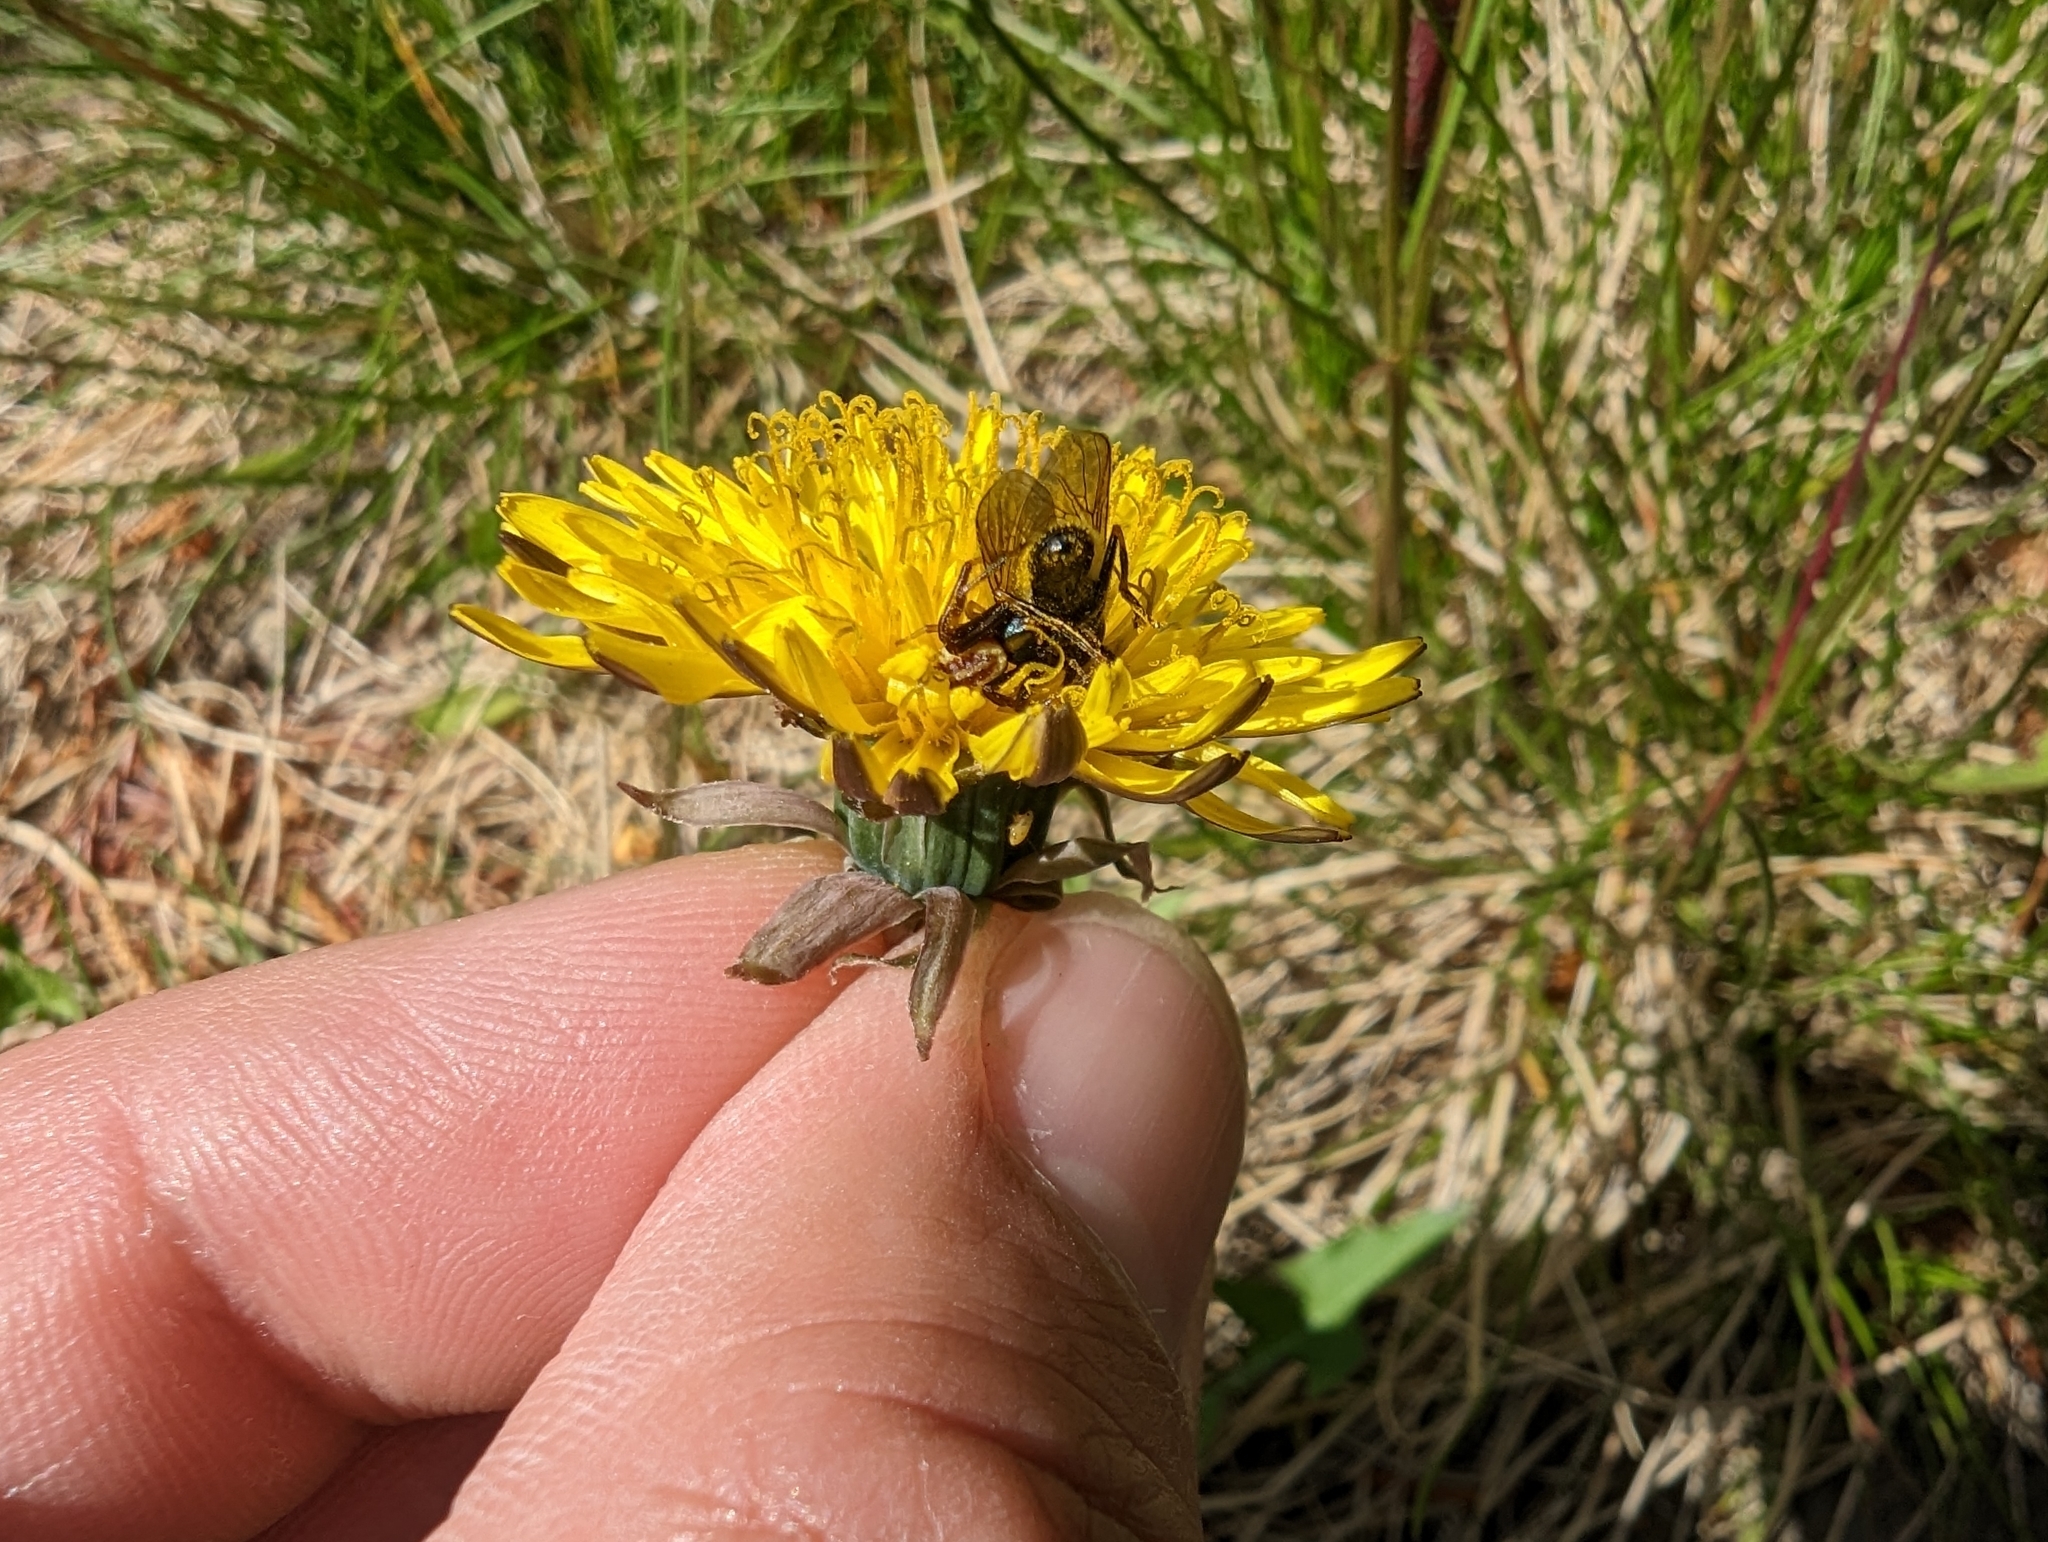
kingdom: Animalia
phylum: Arthropoda
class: Arachnida
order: Araneae
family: Thomisidae
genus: Misumena
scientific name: Misumena vatia
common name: Goldenrod crab spider
